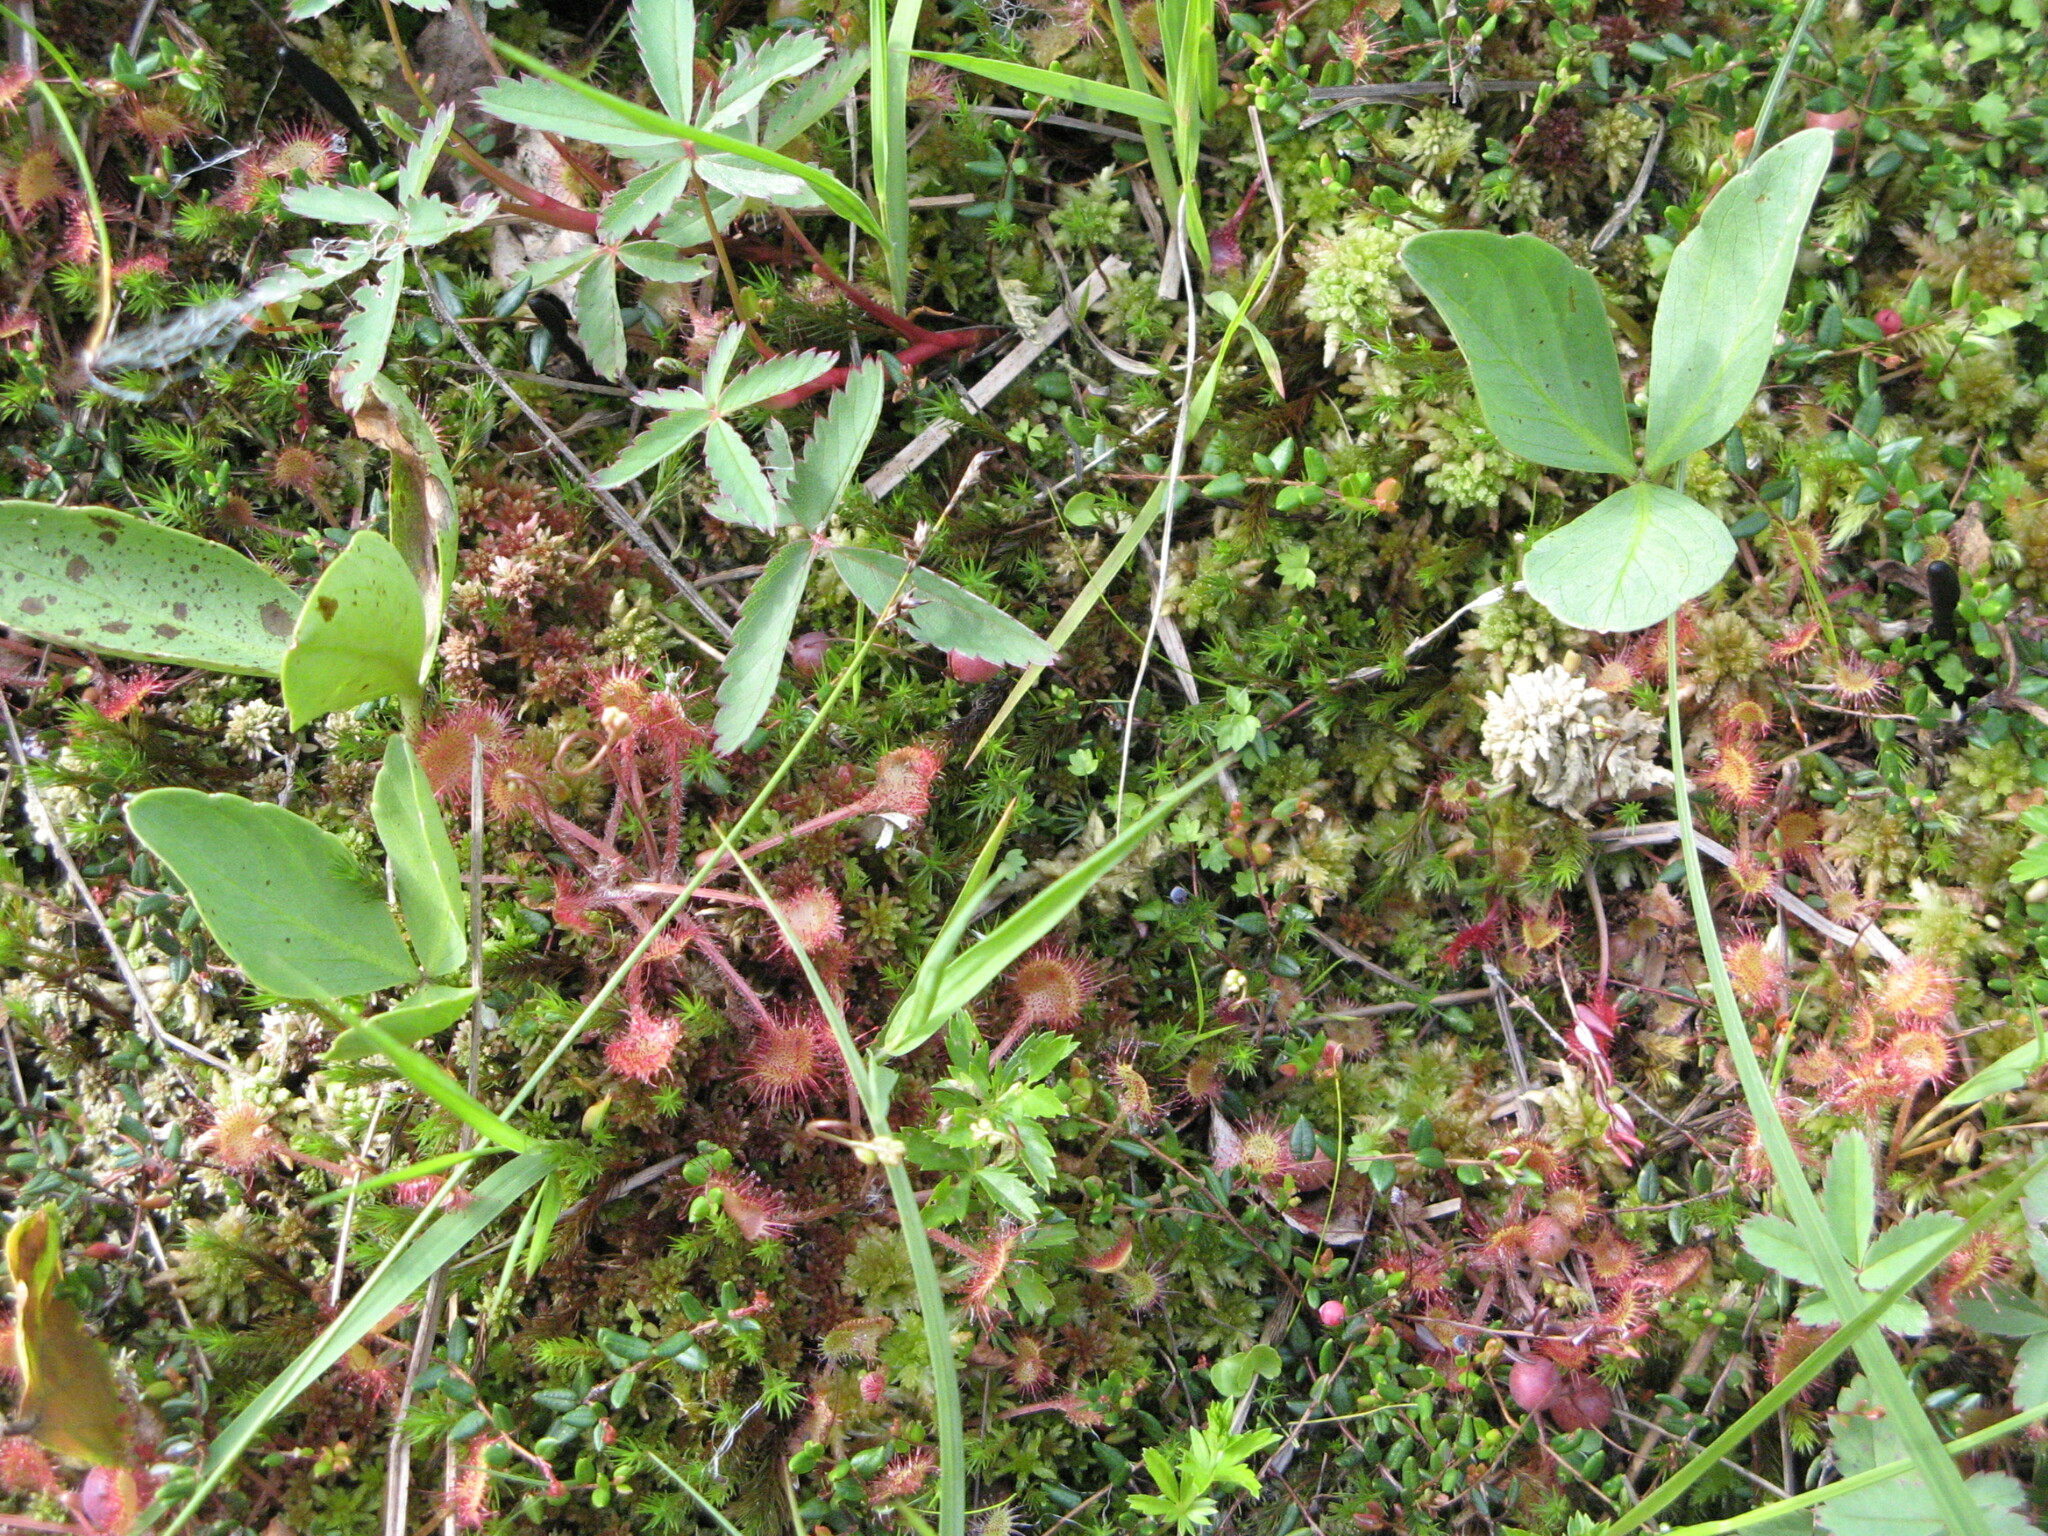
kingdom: Plantae
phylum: Tracheophyta
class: Magnoliopsida
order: Caryophyllales
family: Droseraceae
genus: Drosera
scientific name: Drosera rotundifolia
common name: Round-leaved sundew
